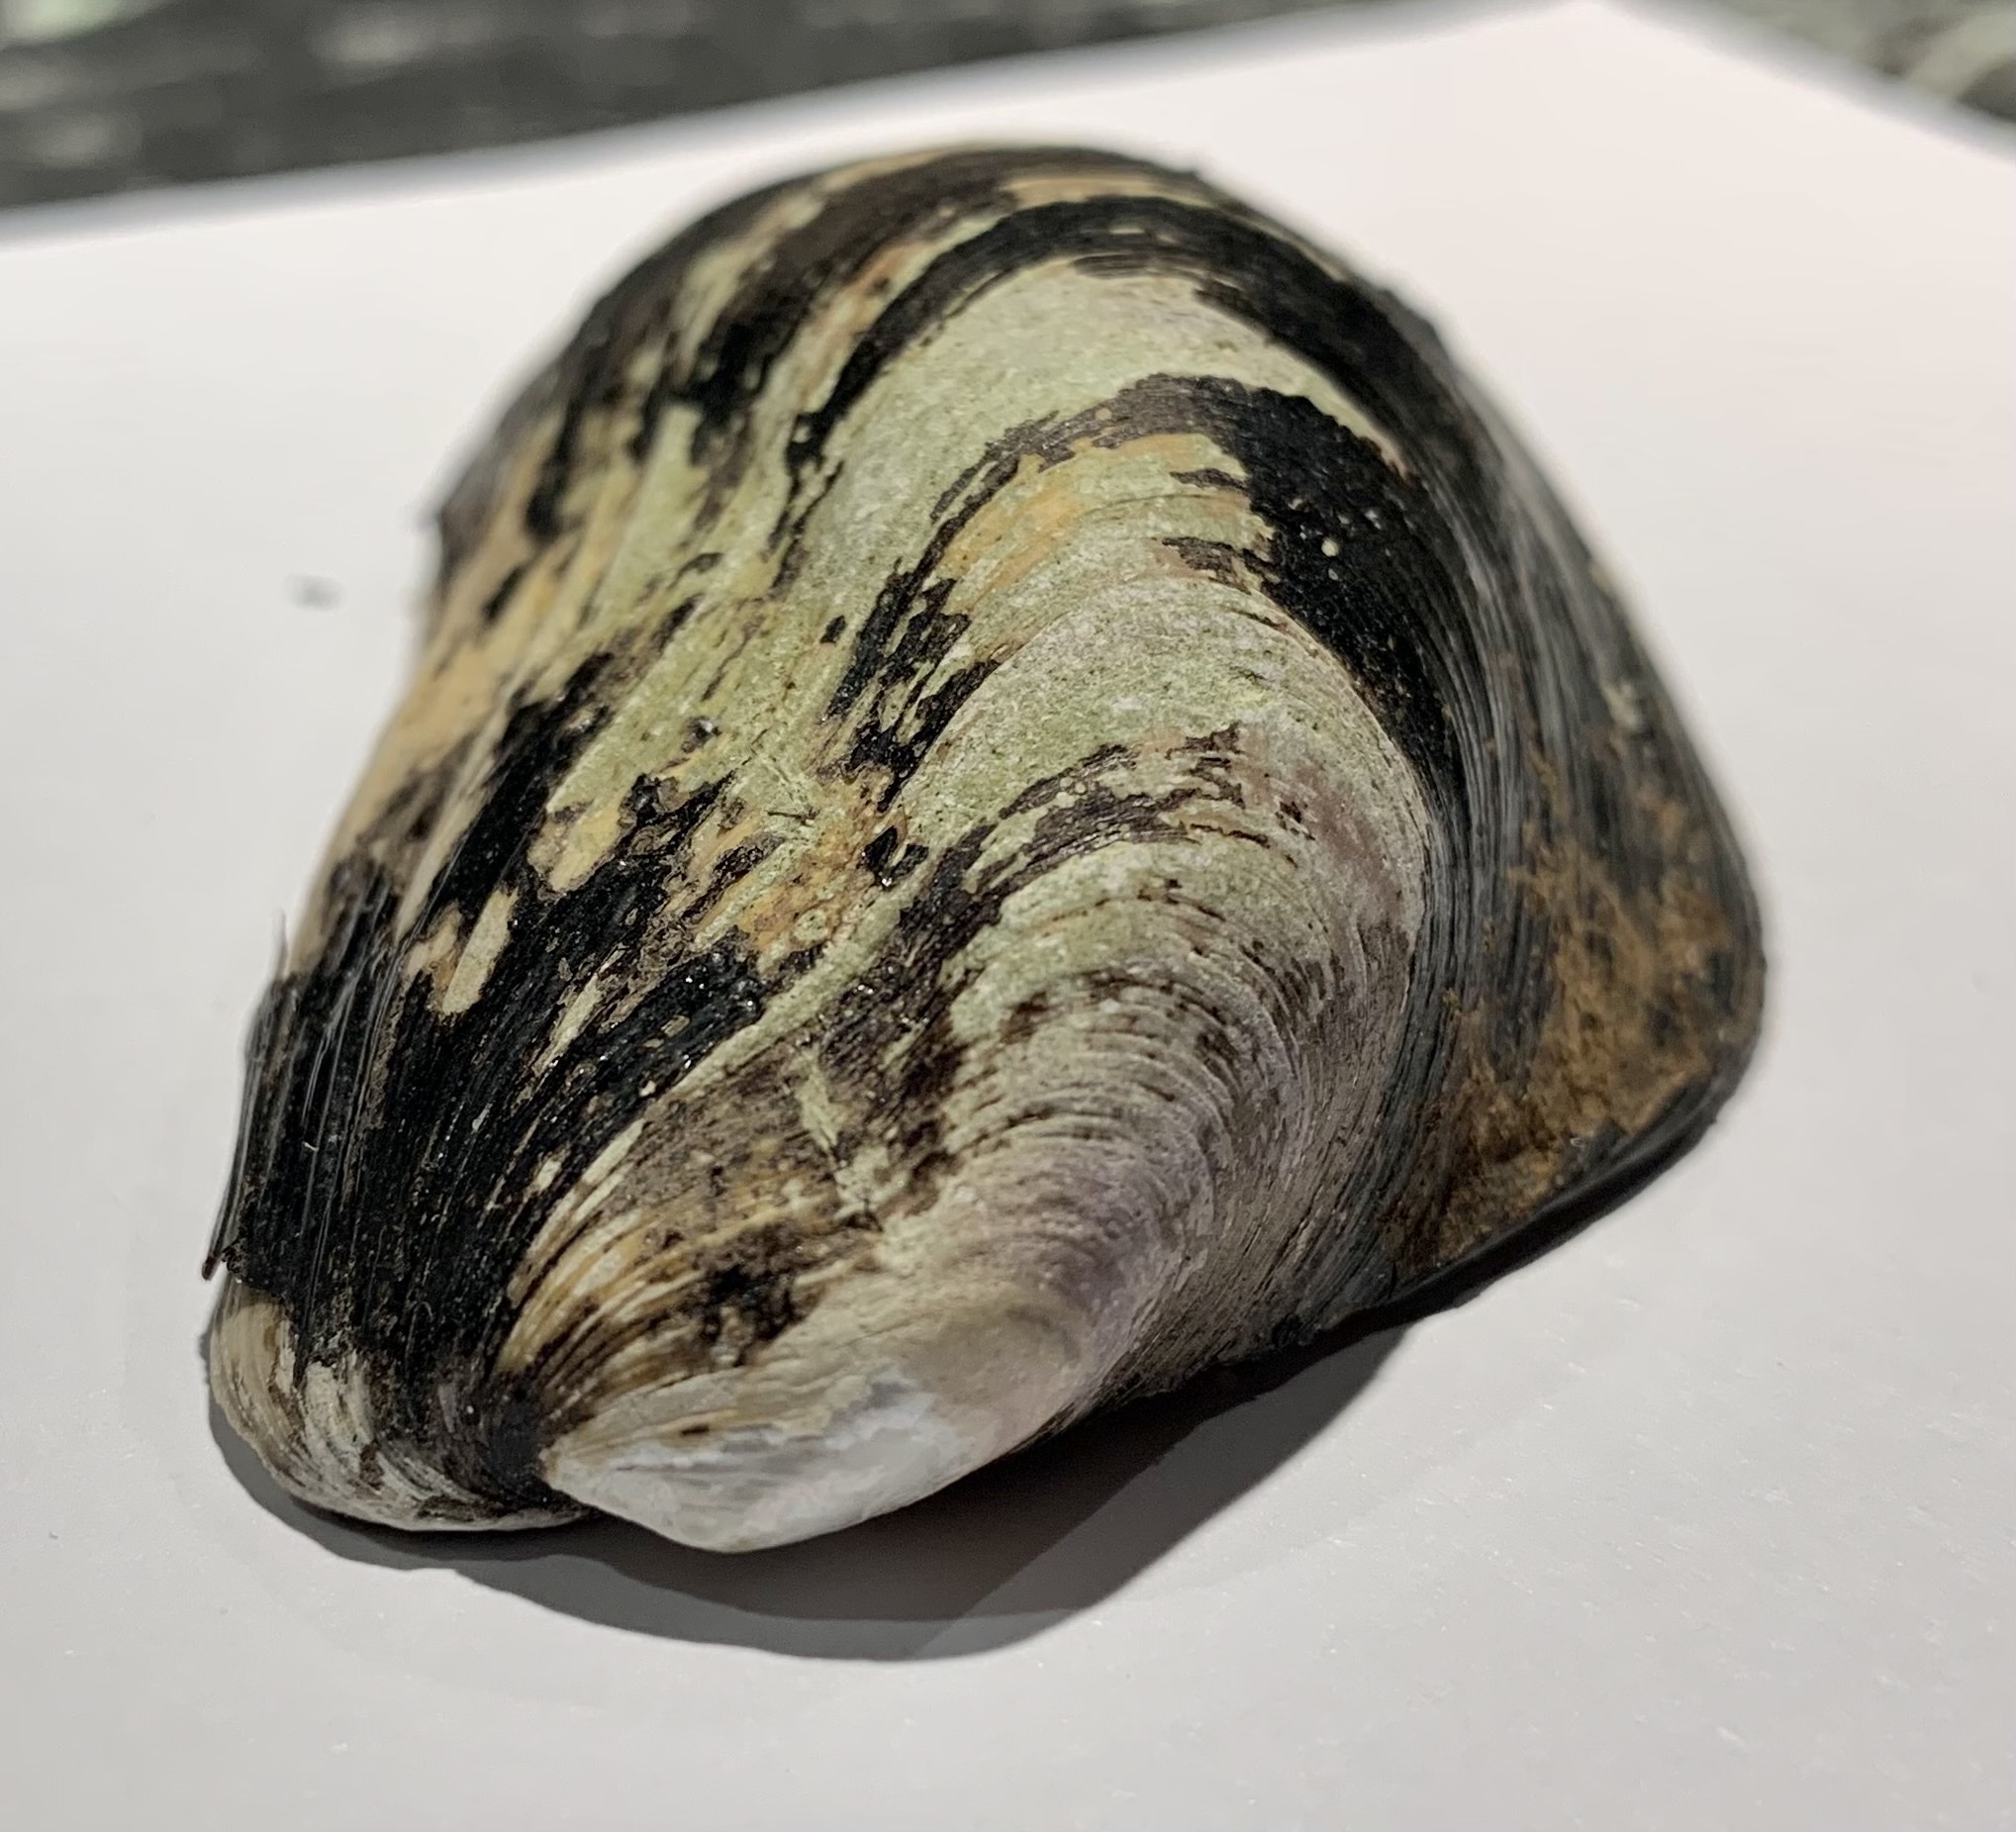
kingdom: Animalia
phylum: Mollusca
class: Bivalvia
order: Mytilida
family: Mytilidae
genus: Modiolus
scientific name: Modiolus modiolus
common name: Horse-mussel
